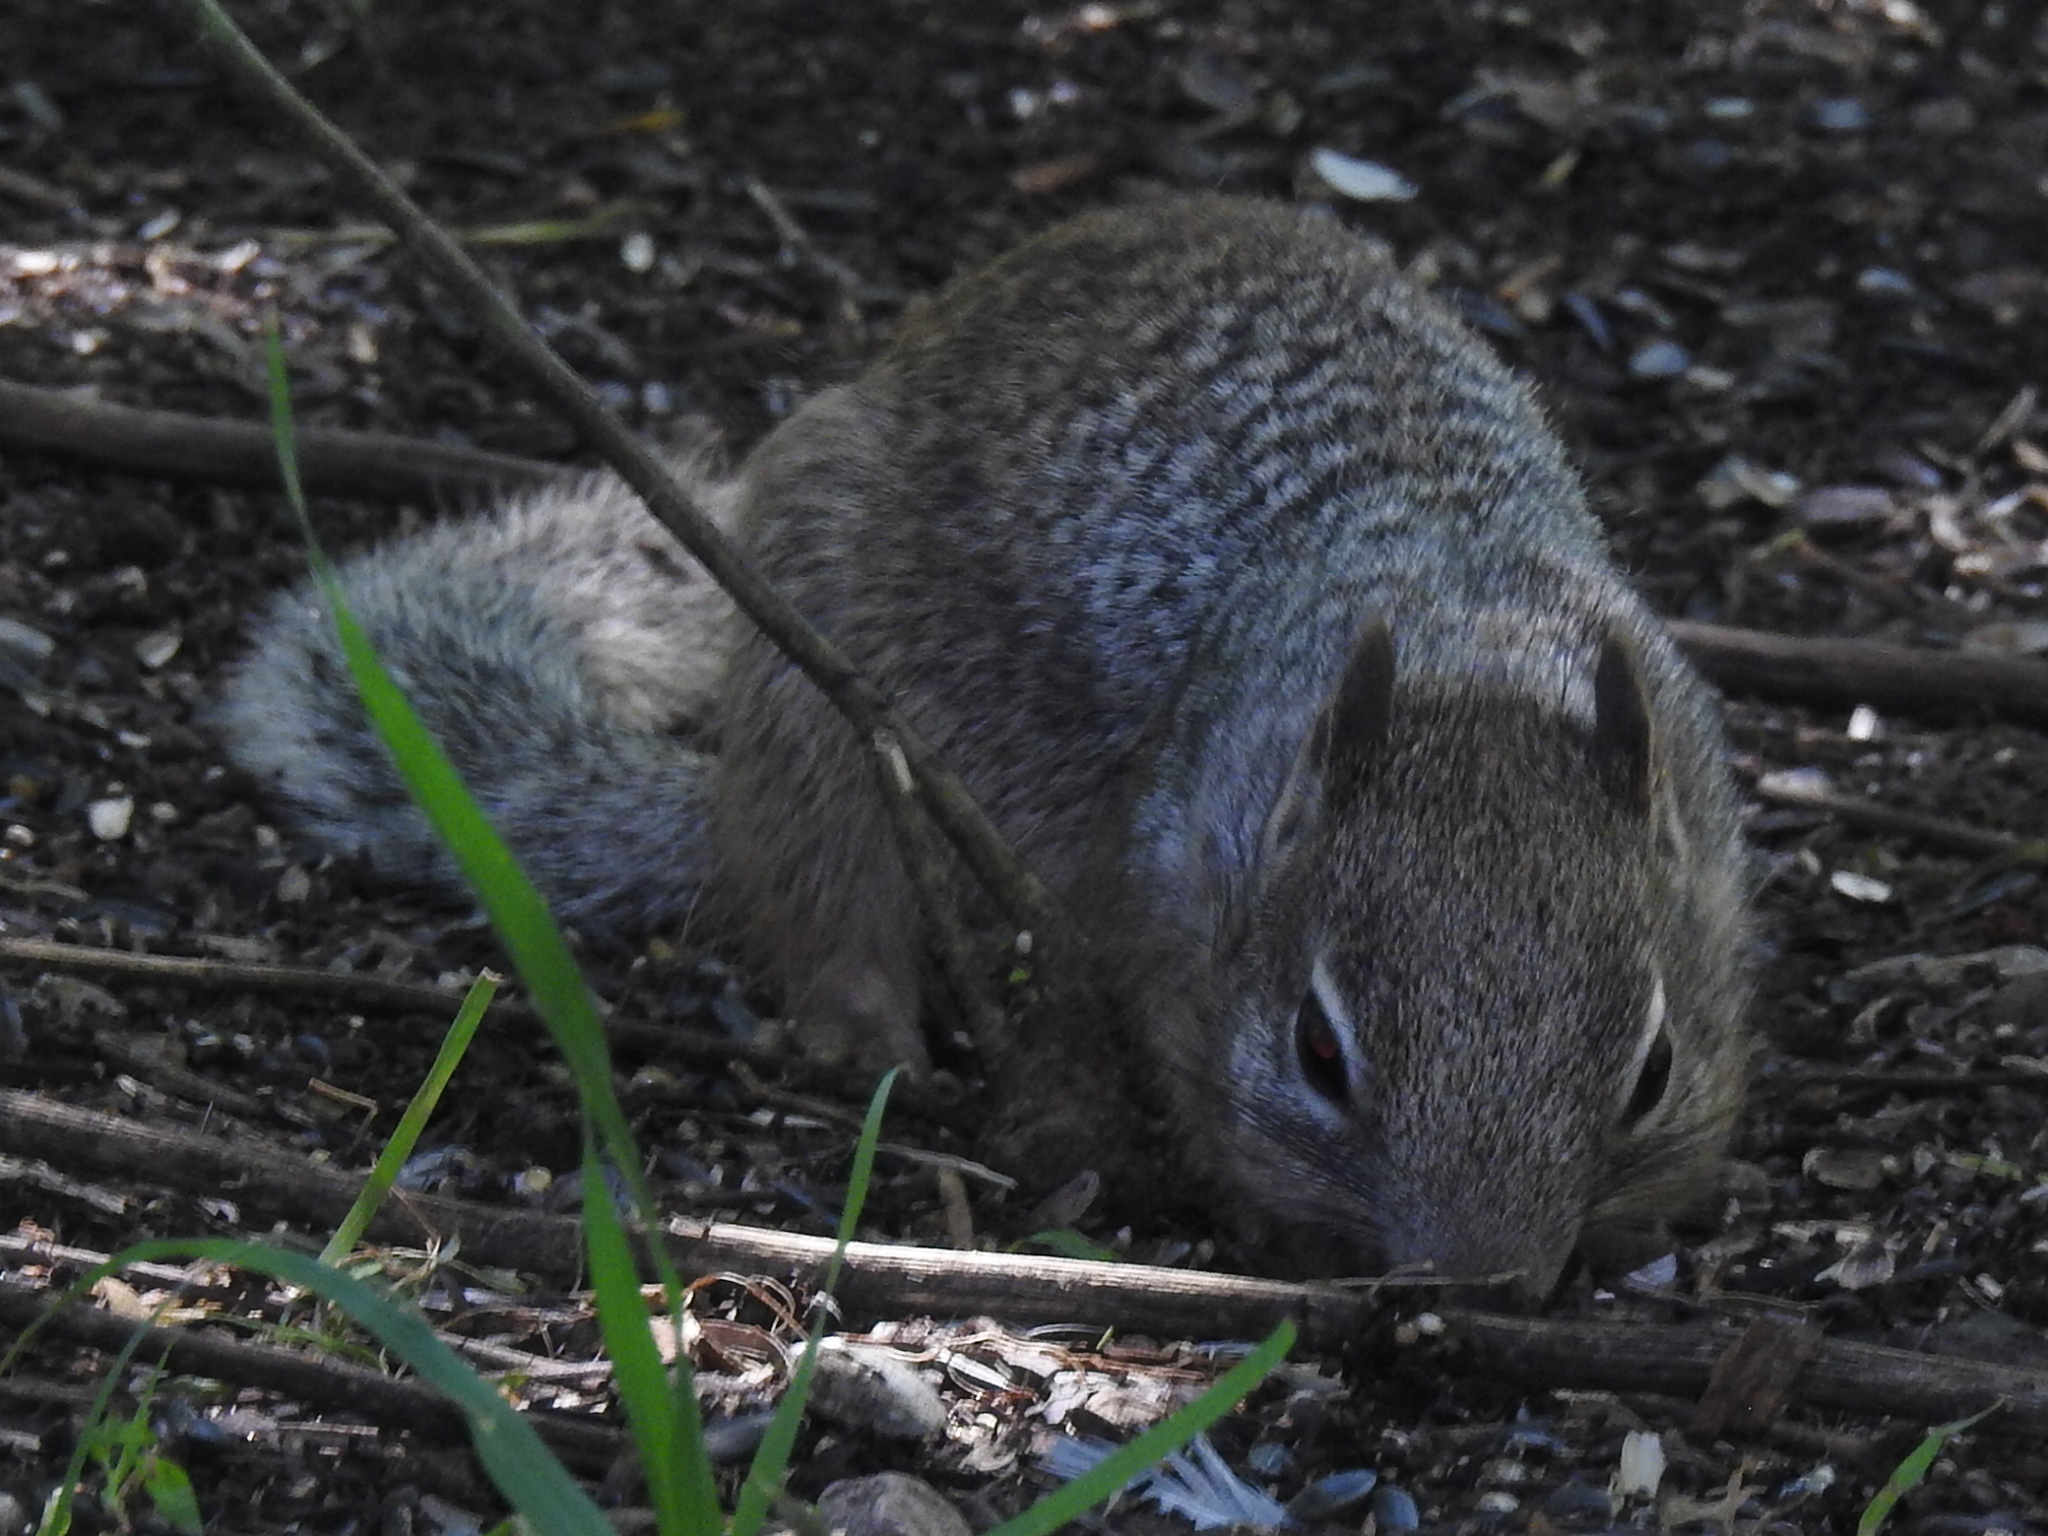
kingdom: Animalia
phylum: Chordata
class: Mammalia
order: Rodentia
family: Sciuridae
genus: Otospermophilus
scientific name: Otospermophilus variegatus
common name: Rock squirrel
